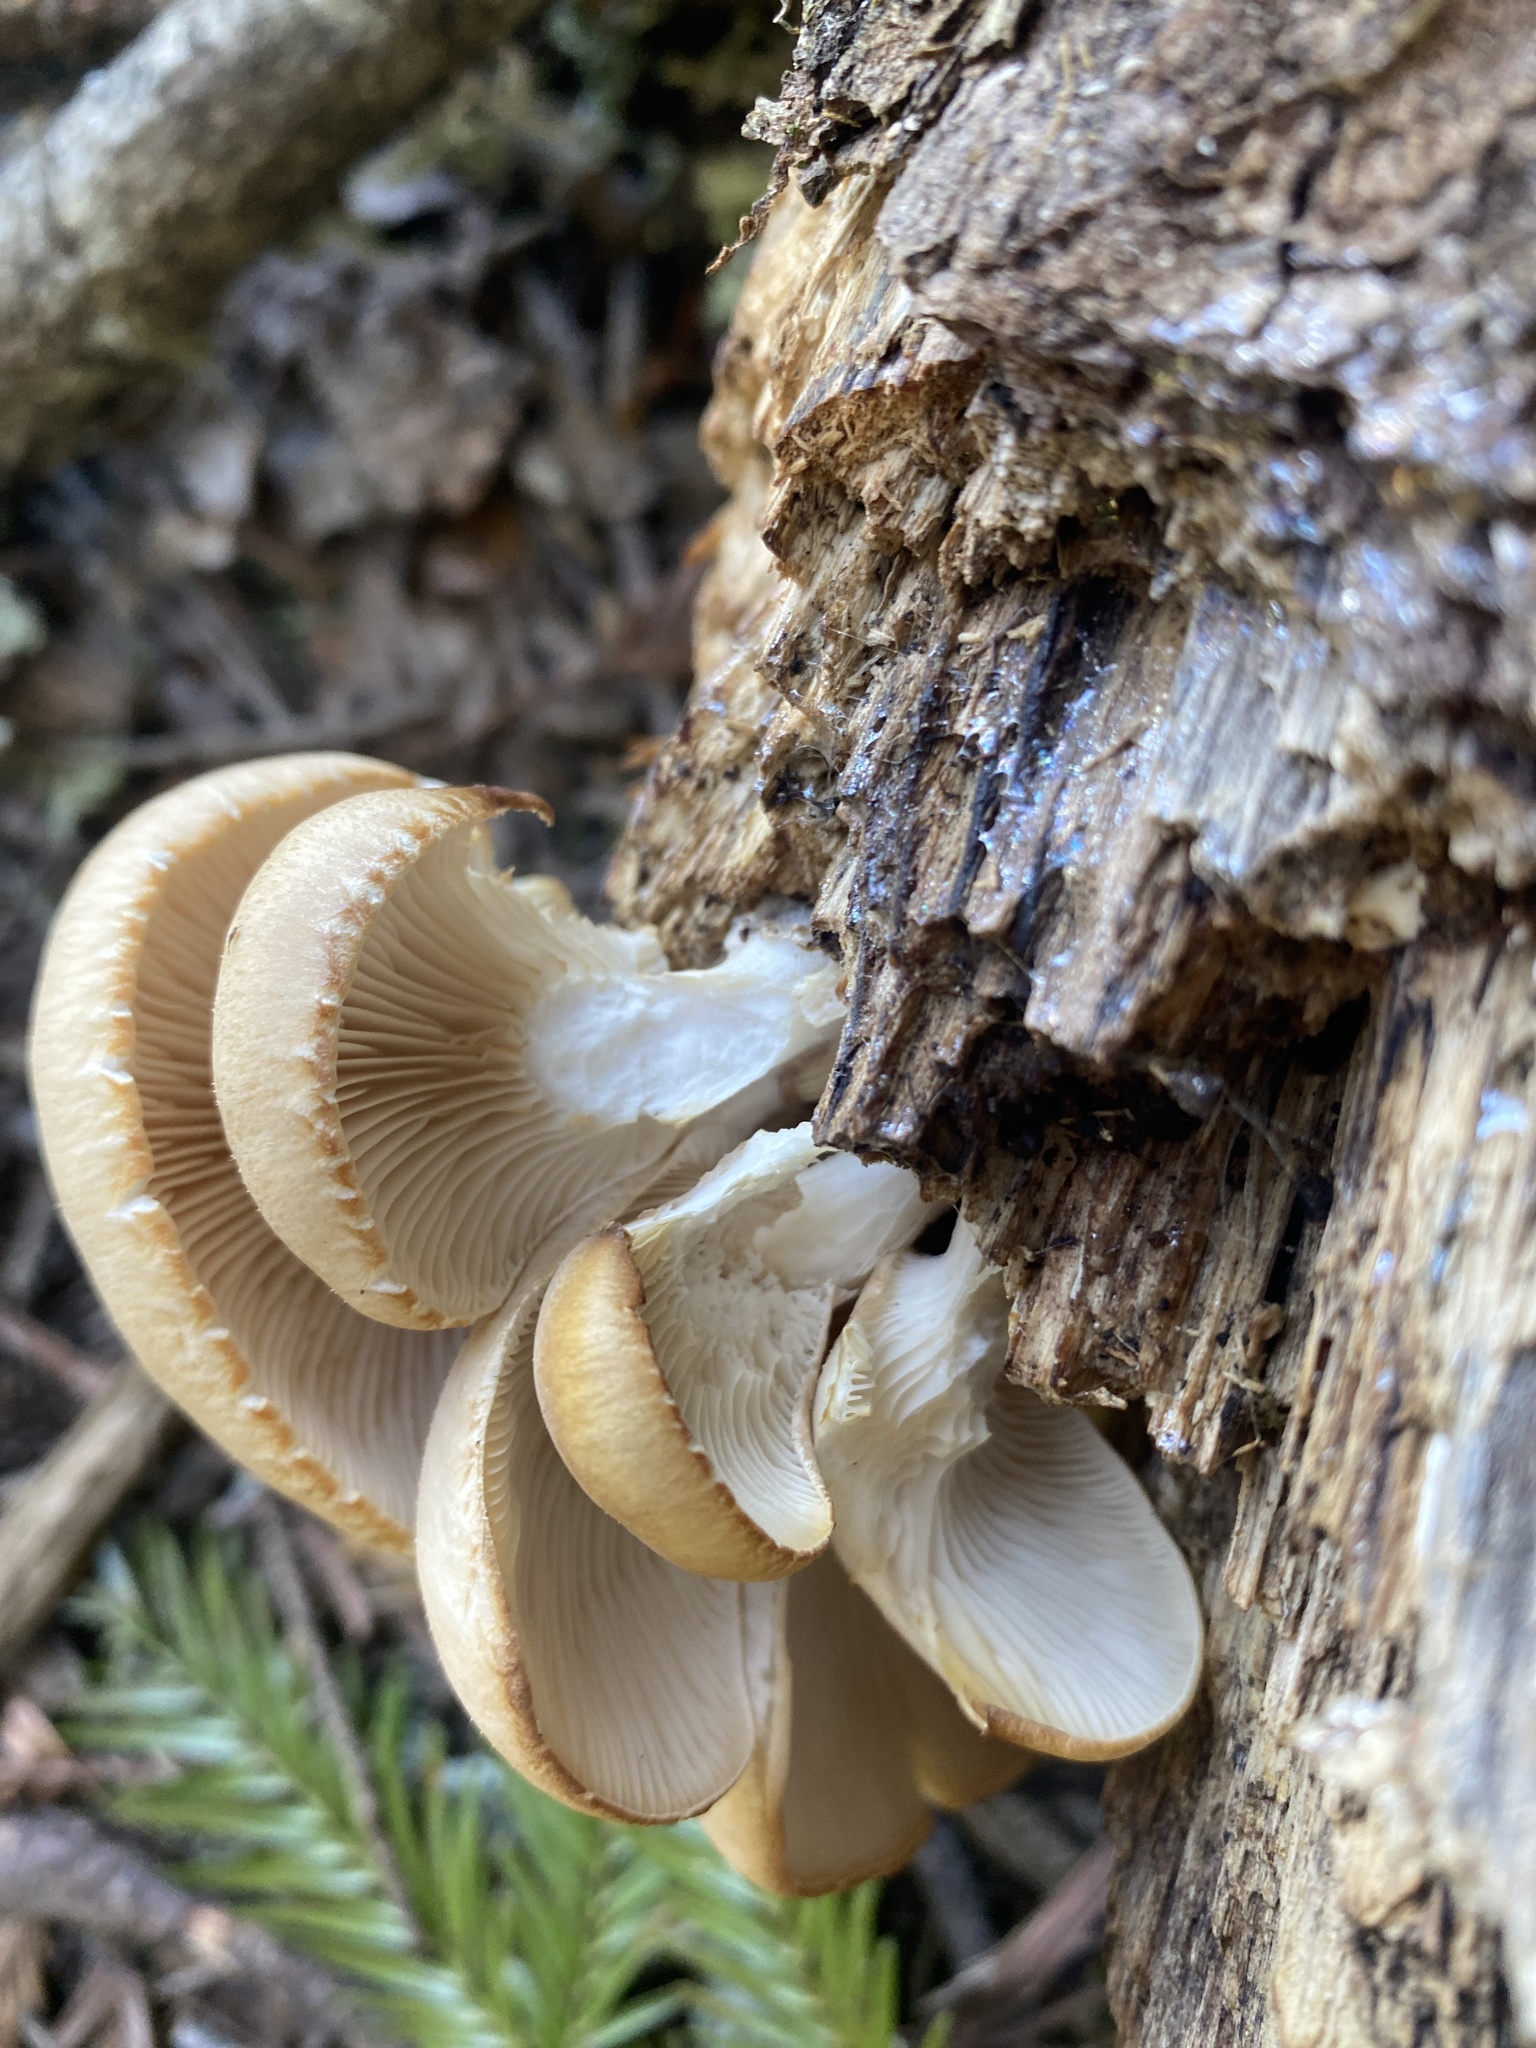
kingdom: Fungi
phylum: Basidiomycota
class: Agaricomycetes
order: Agaricales
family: Pleurotaceae
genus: Pleurotus
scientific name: Pleurotus ostreatus
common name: Oyster mushroom
